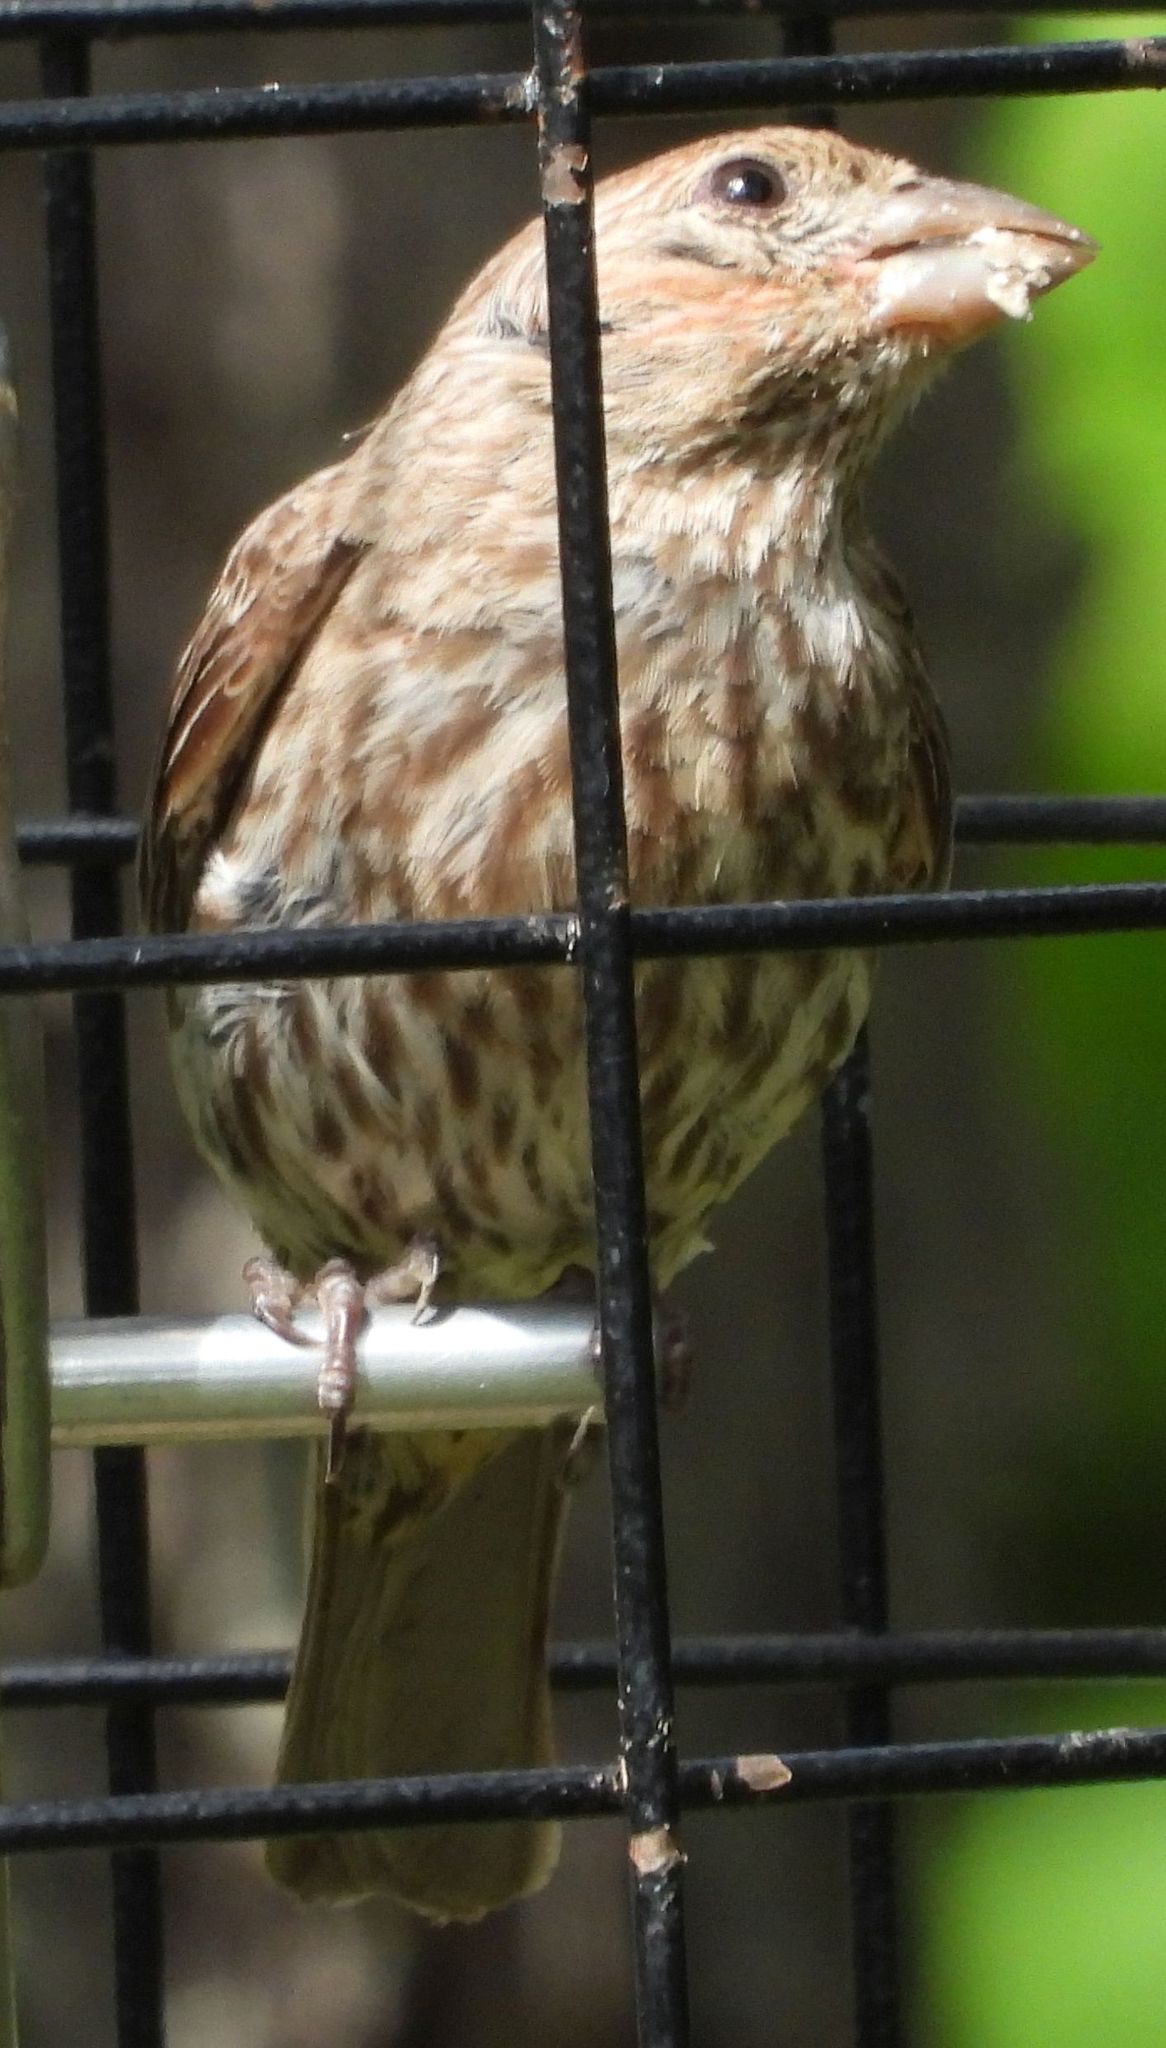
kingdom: Animalia
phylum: Chordata
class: Aves
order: Passeriformes
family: Fringillidae
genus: Haemorhous
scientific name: Haemorhous mexicanus
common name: House finch
